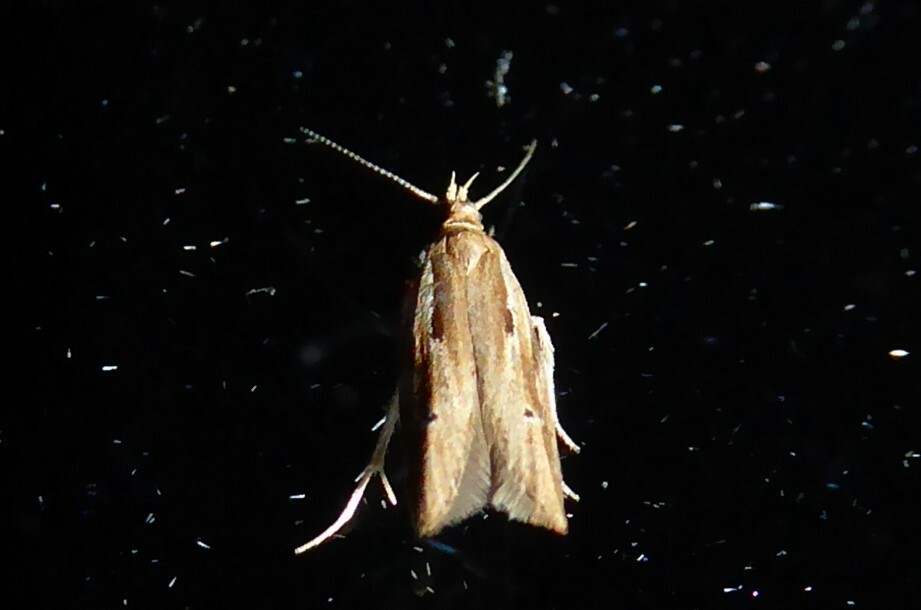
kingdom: Animalia
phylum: Arthropoda
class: Insecta
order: Lepidoptera
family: Depressariidae
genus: Eutorna
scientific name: Eutorna symmorpha
